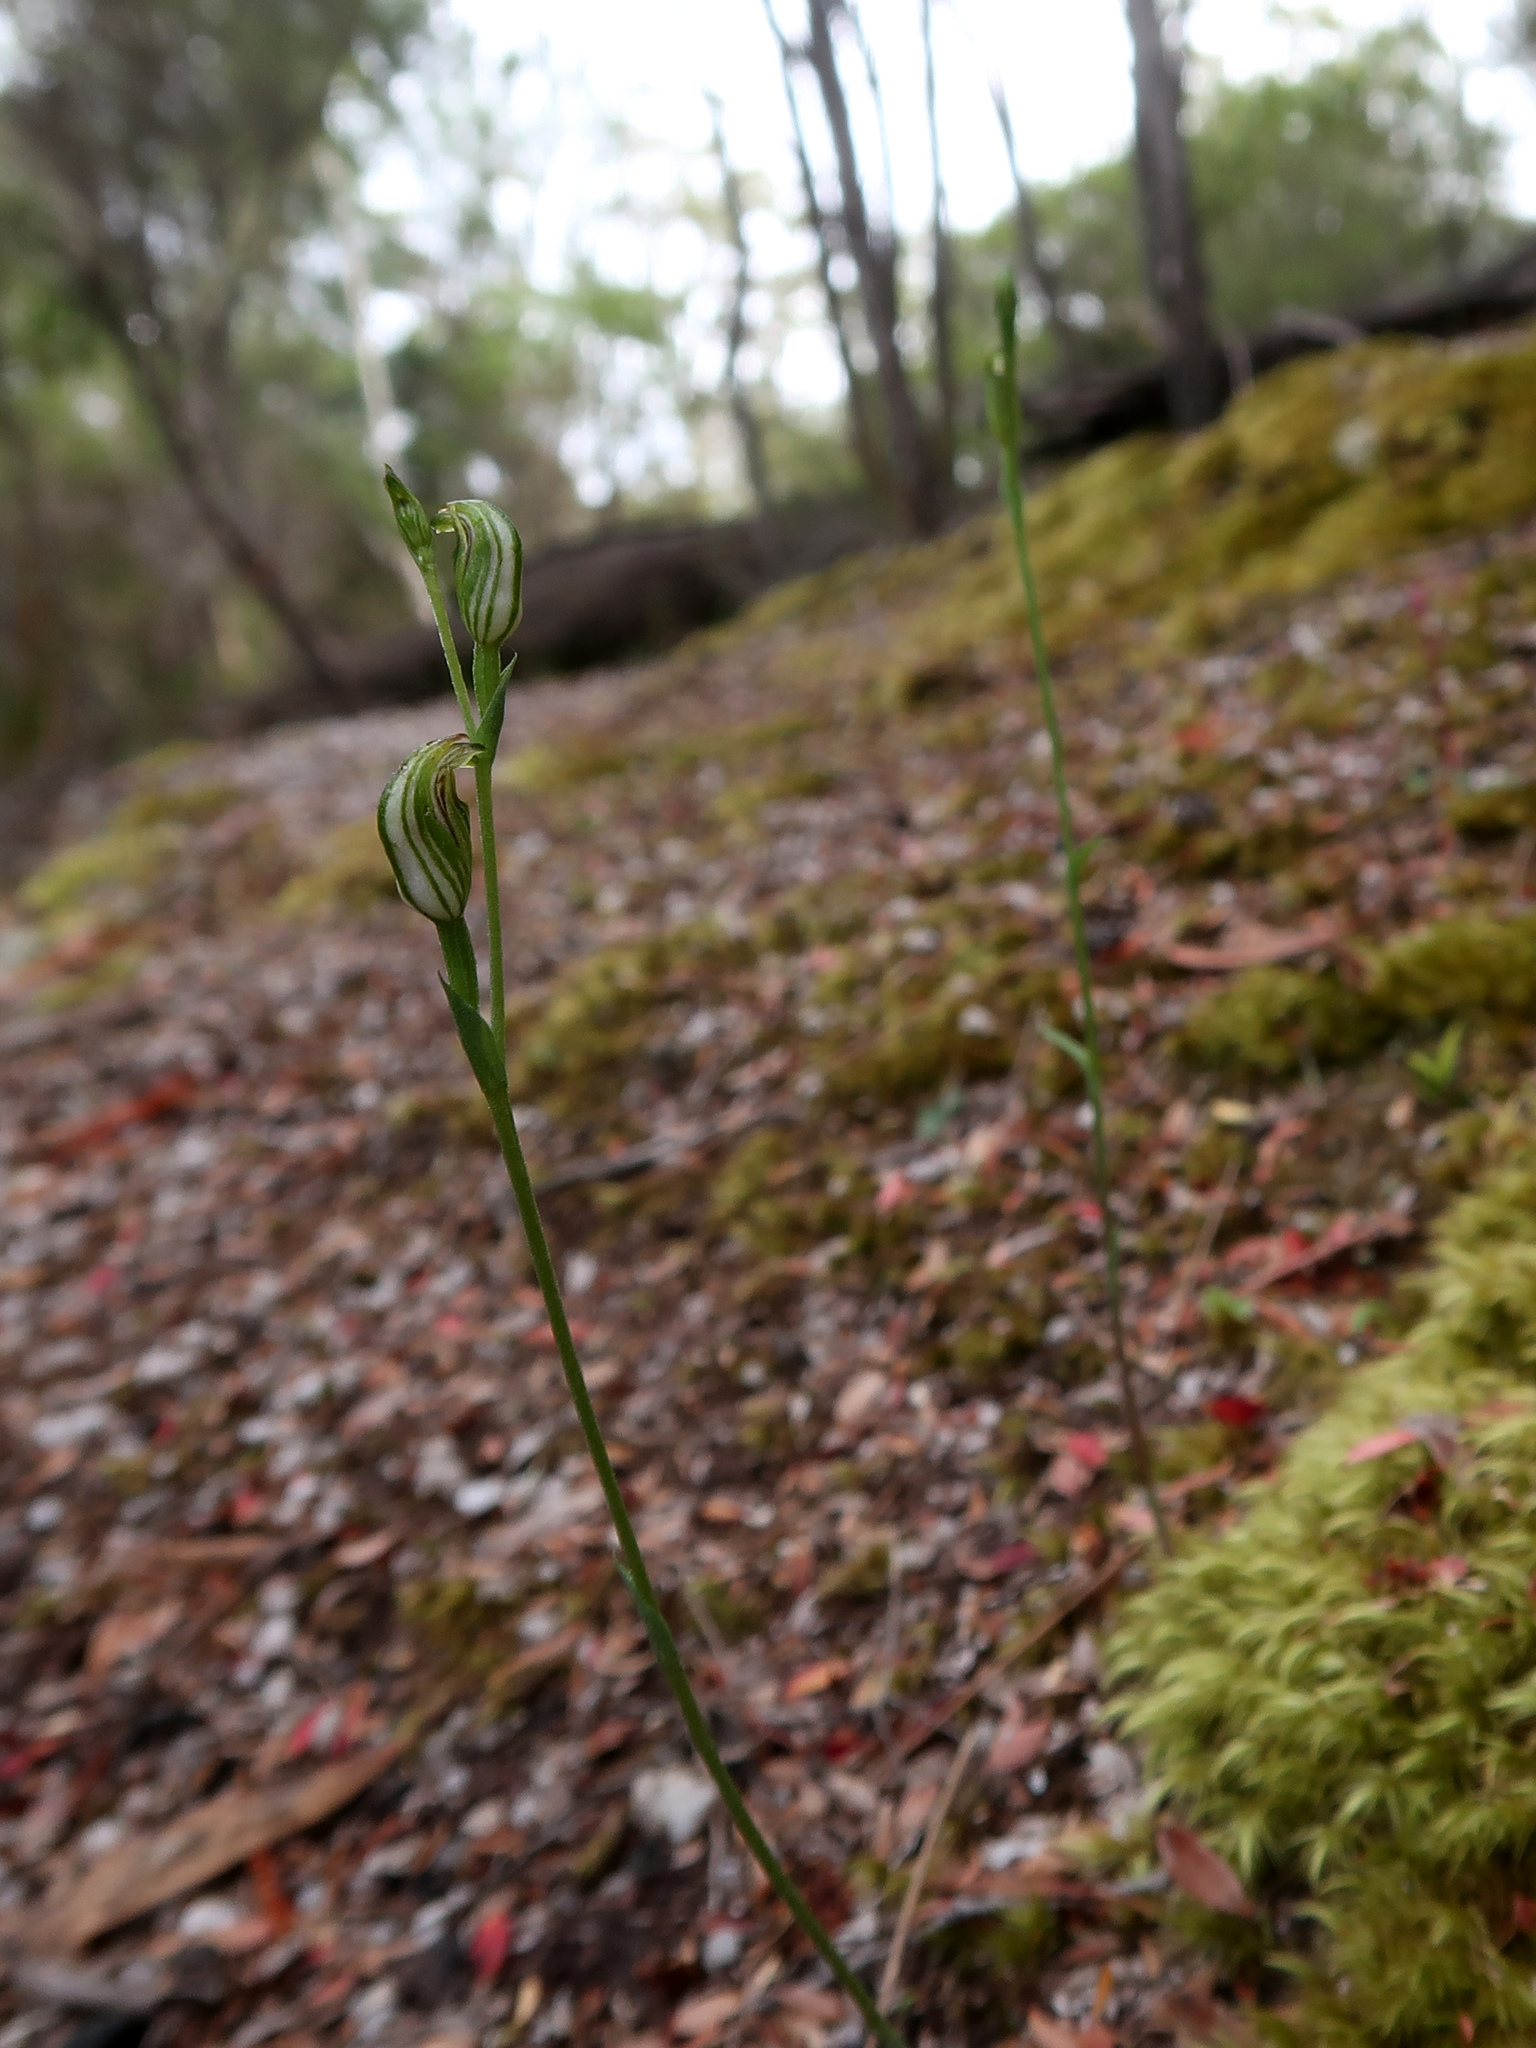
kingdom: Plantae
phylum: Tracheophyta
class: Liliopsida
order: Asparagales
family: Orchidaceae
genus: Pterostylis
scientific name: Pterostylis atriola
